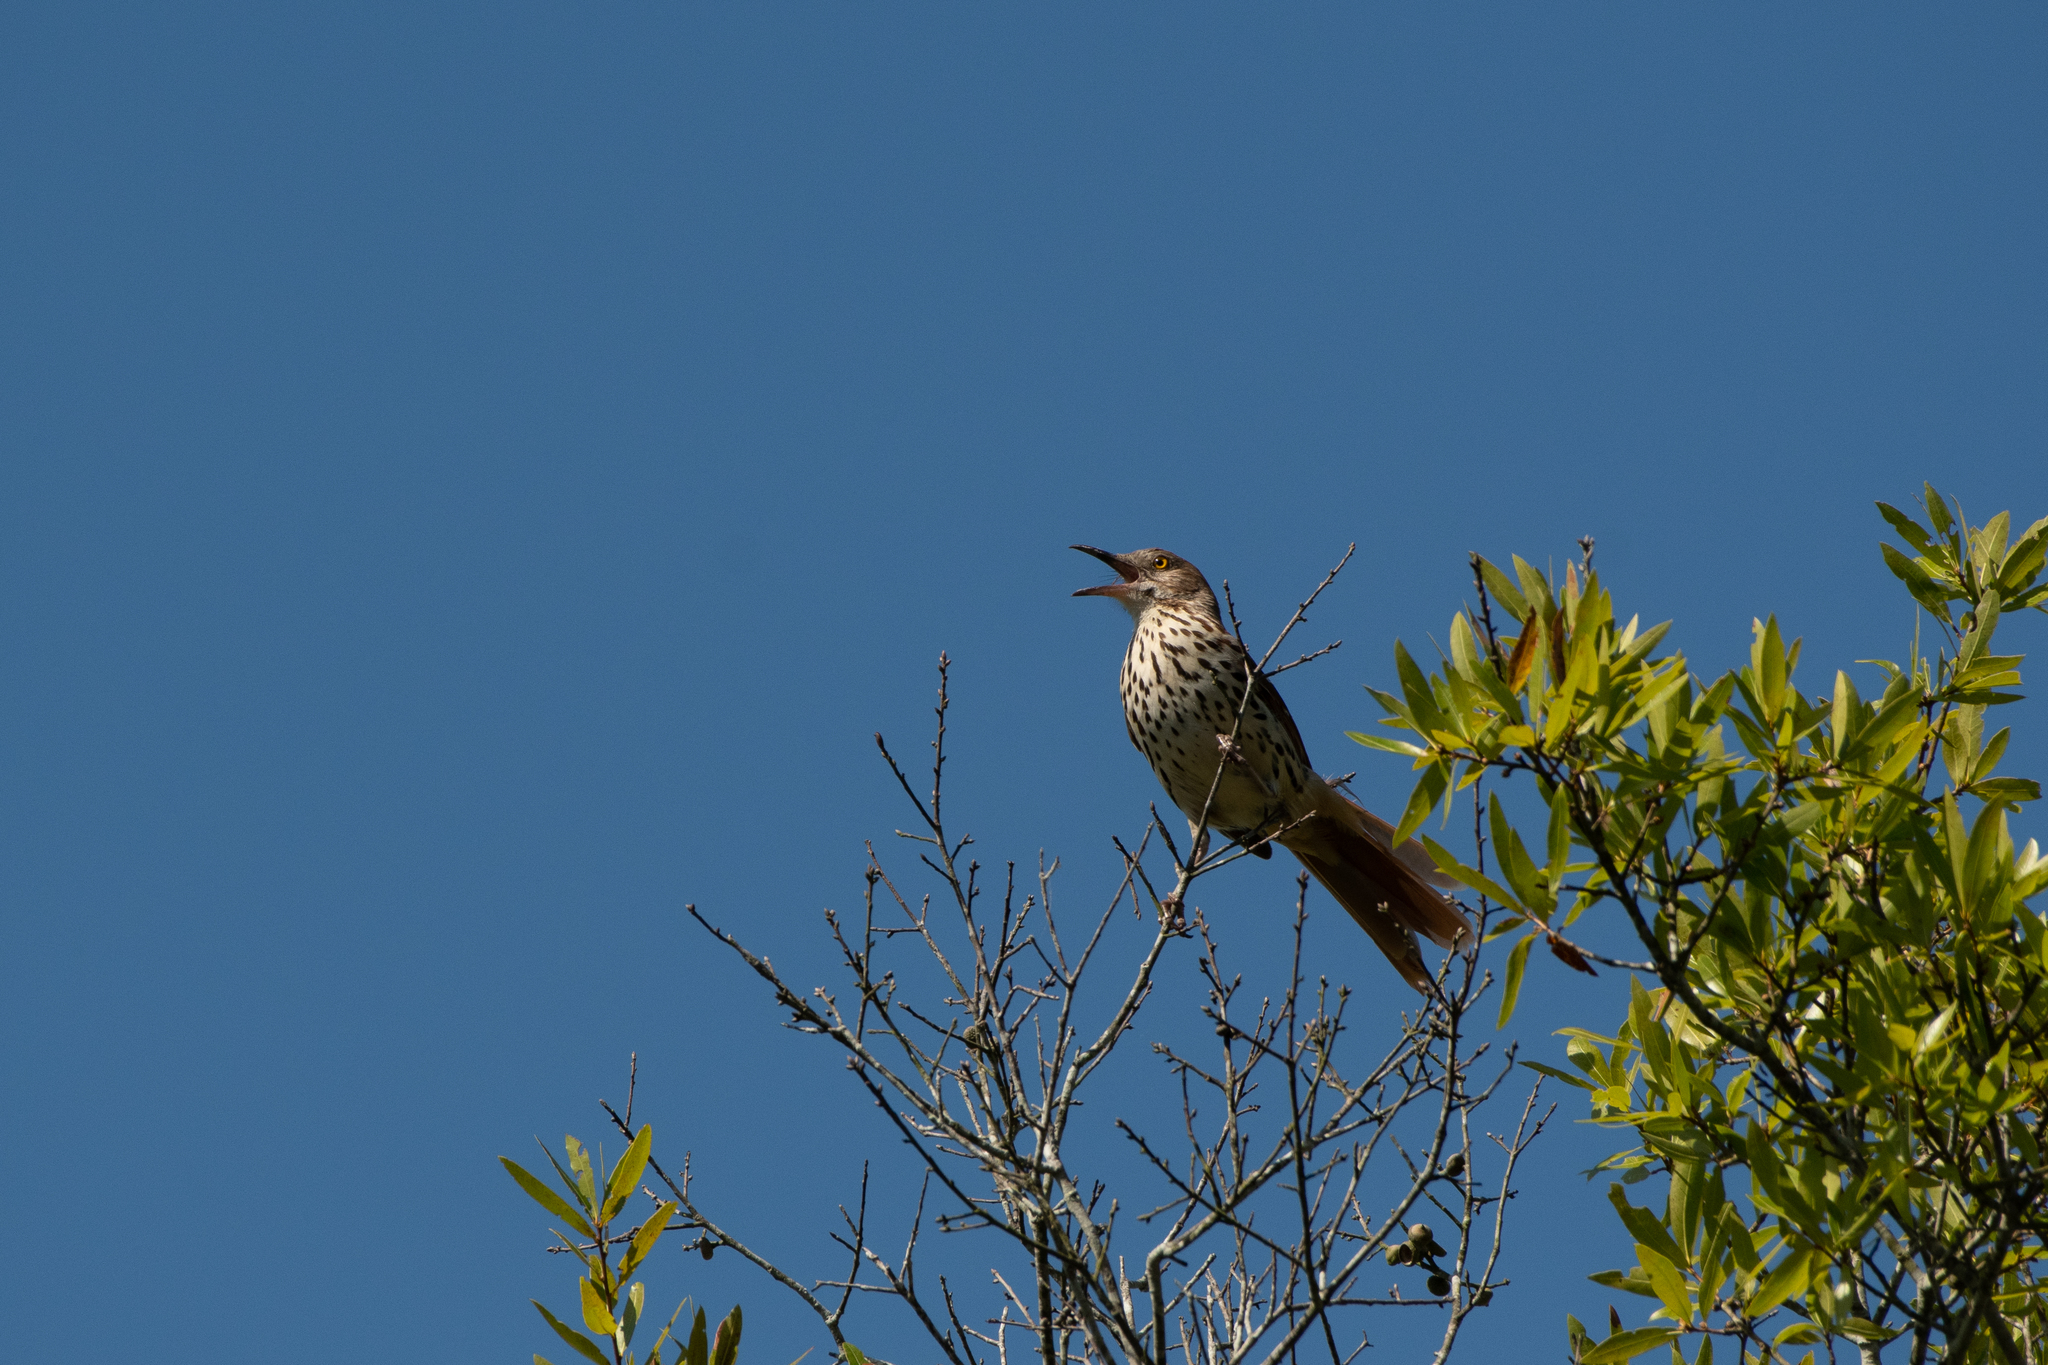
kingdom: Animalia
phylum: Chordata
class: Aves
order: Passeriformes
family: Mimidae
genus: Toxostoma
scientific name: Toxostoma rufum
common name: Brown thrasher
